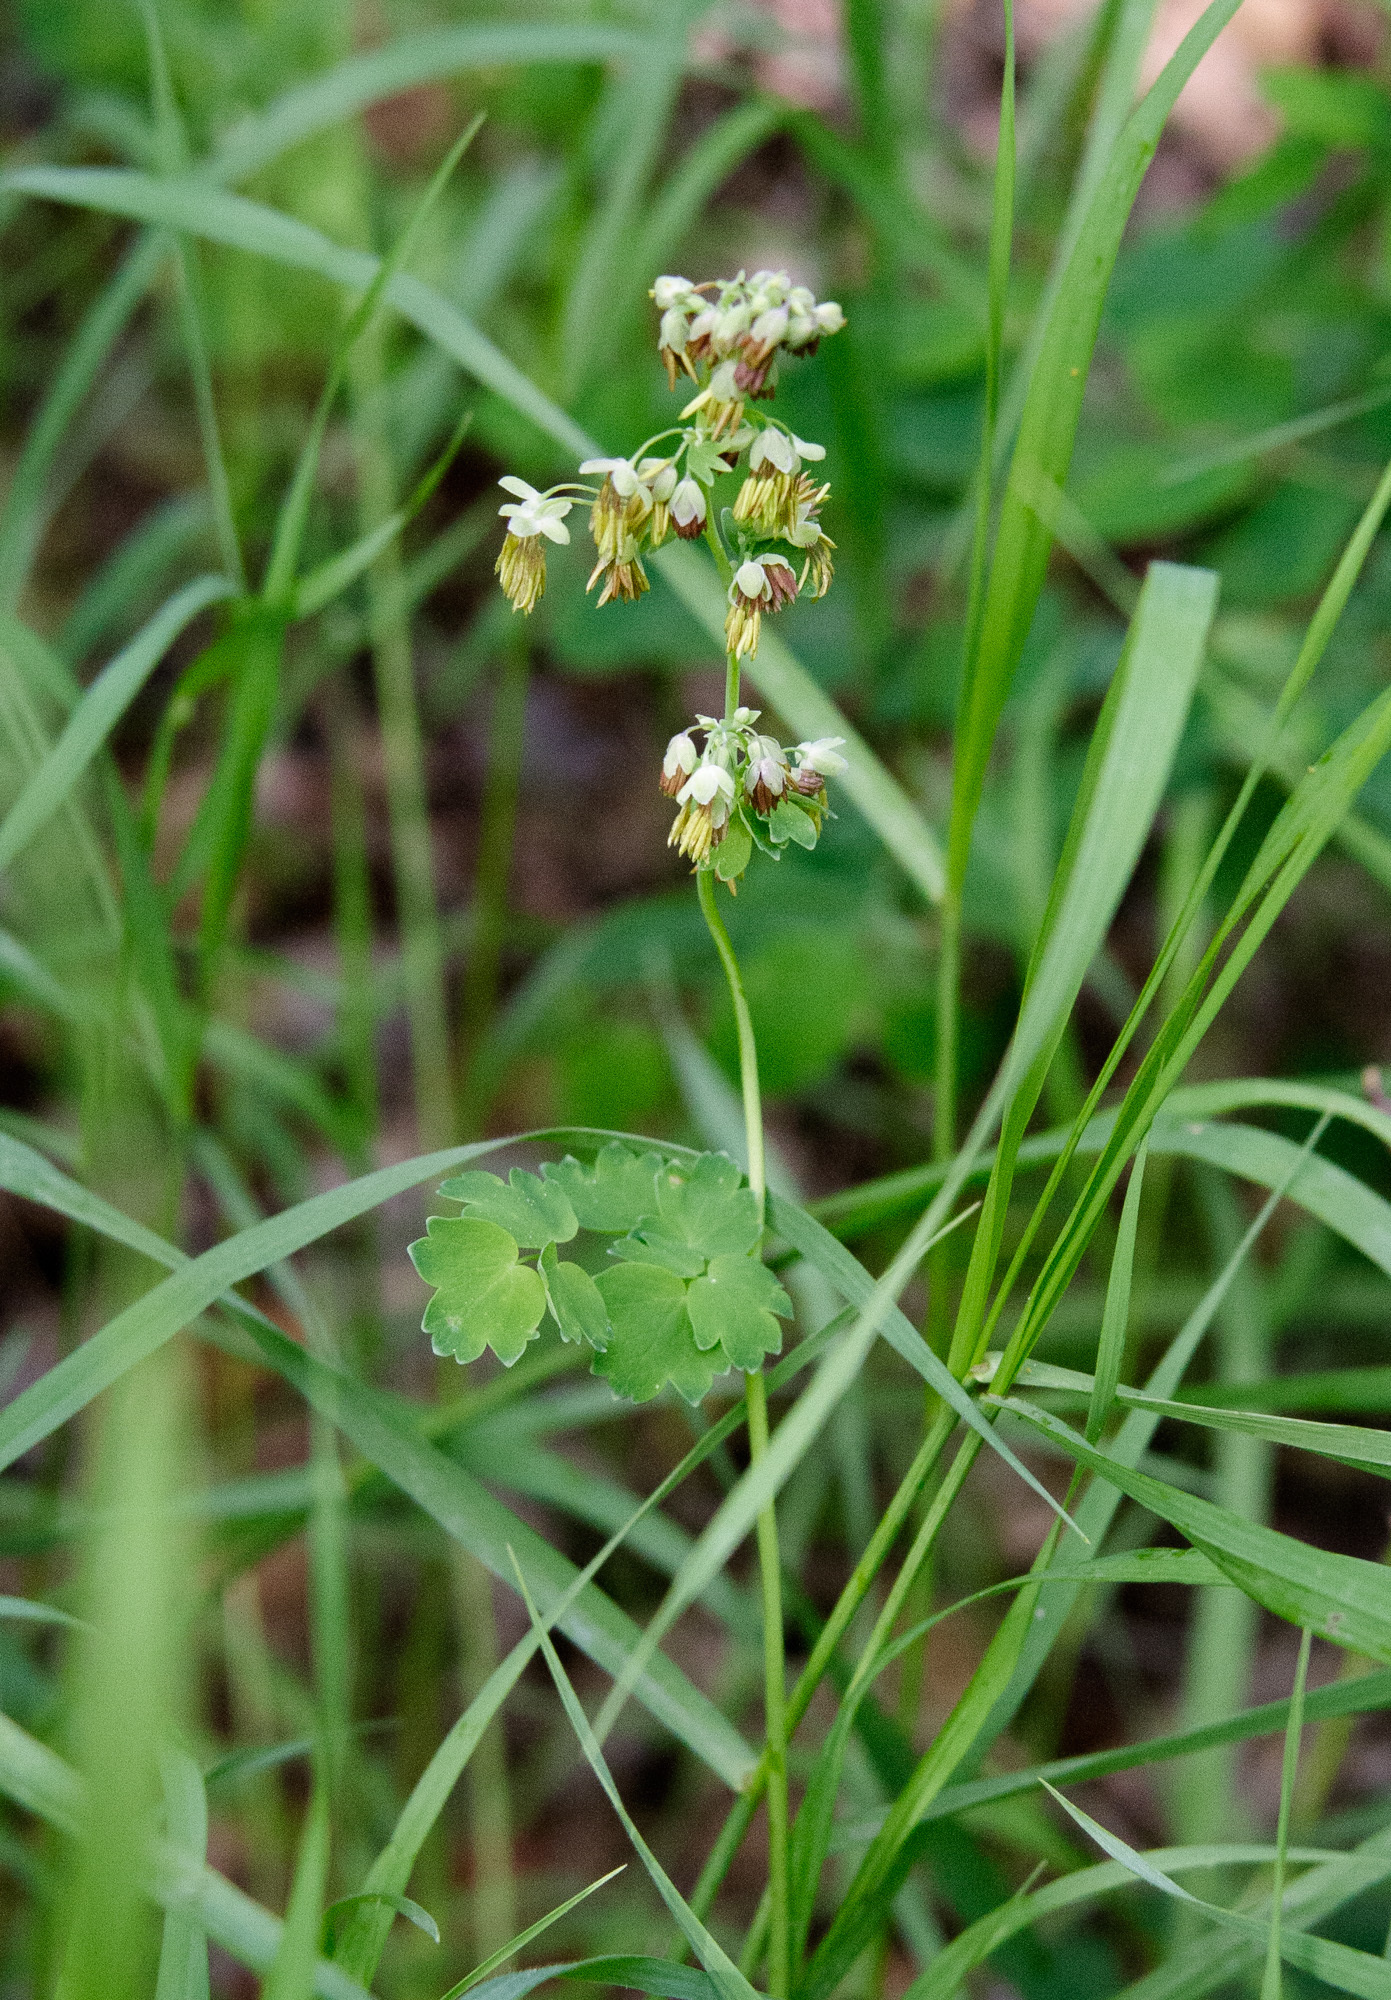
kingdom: Plantae
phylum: Tracheophyta
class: Magnoliopsida
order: Ranunculales
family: Ranunculaceae
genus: Thalictrum
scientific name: Thalictrum occidentale
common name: Western meadow-rue
